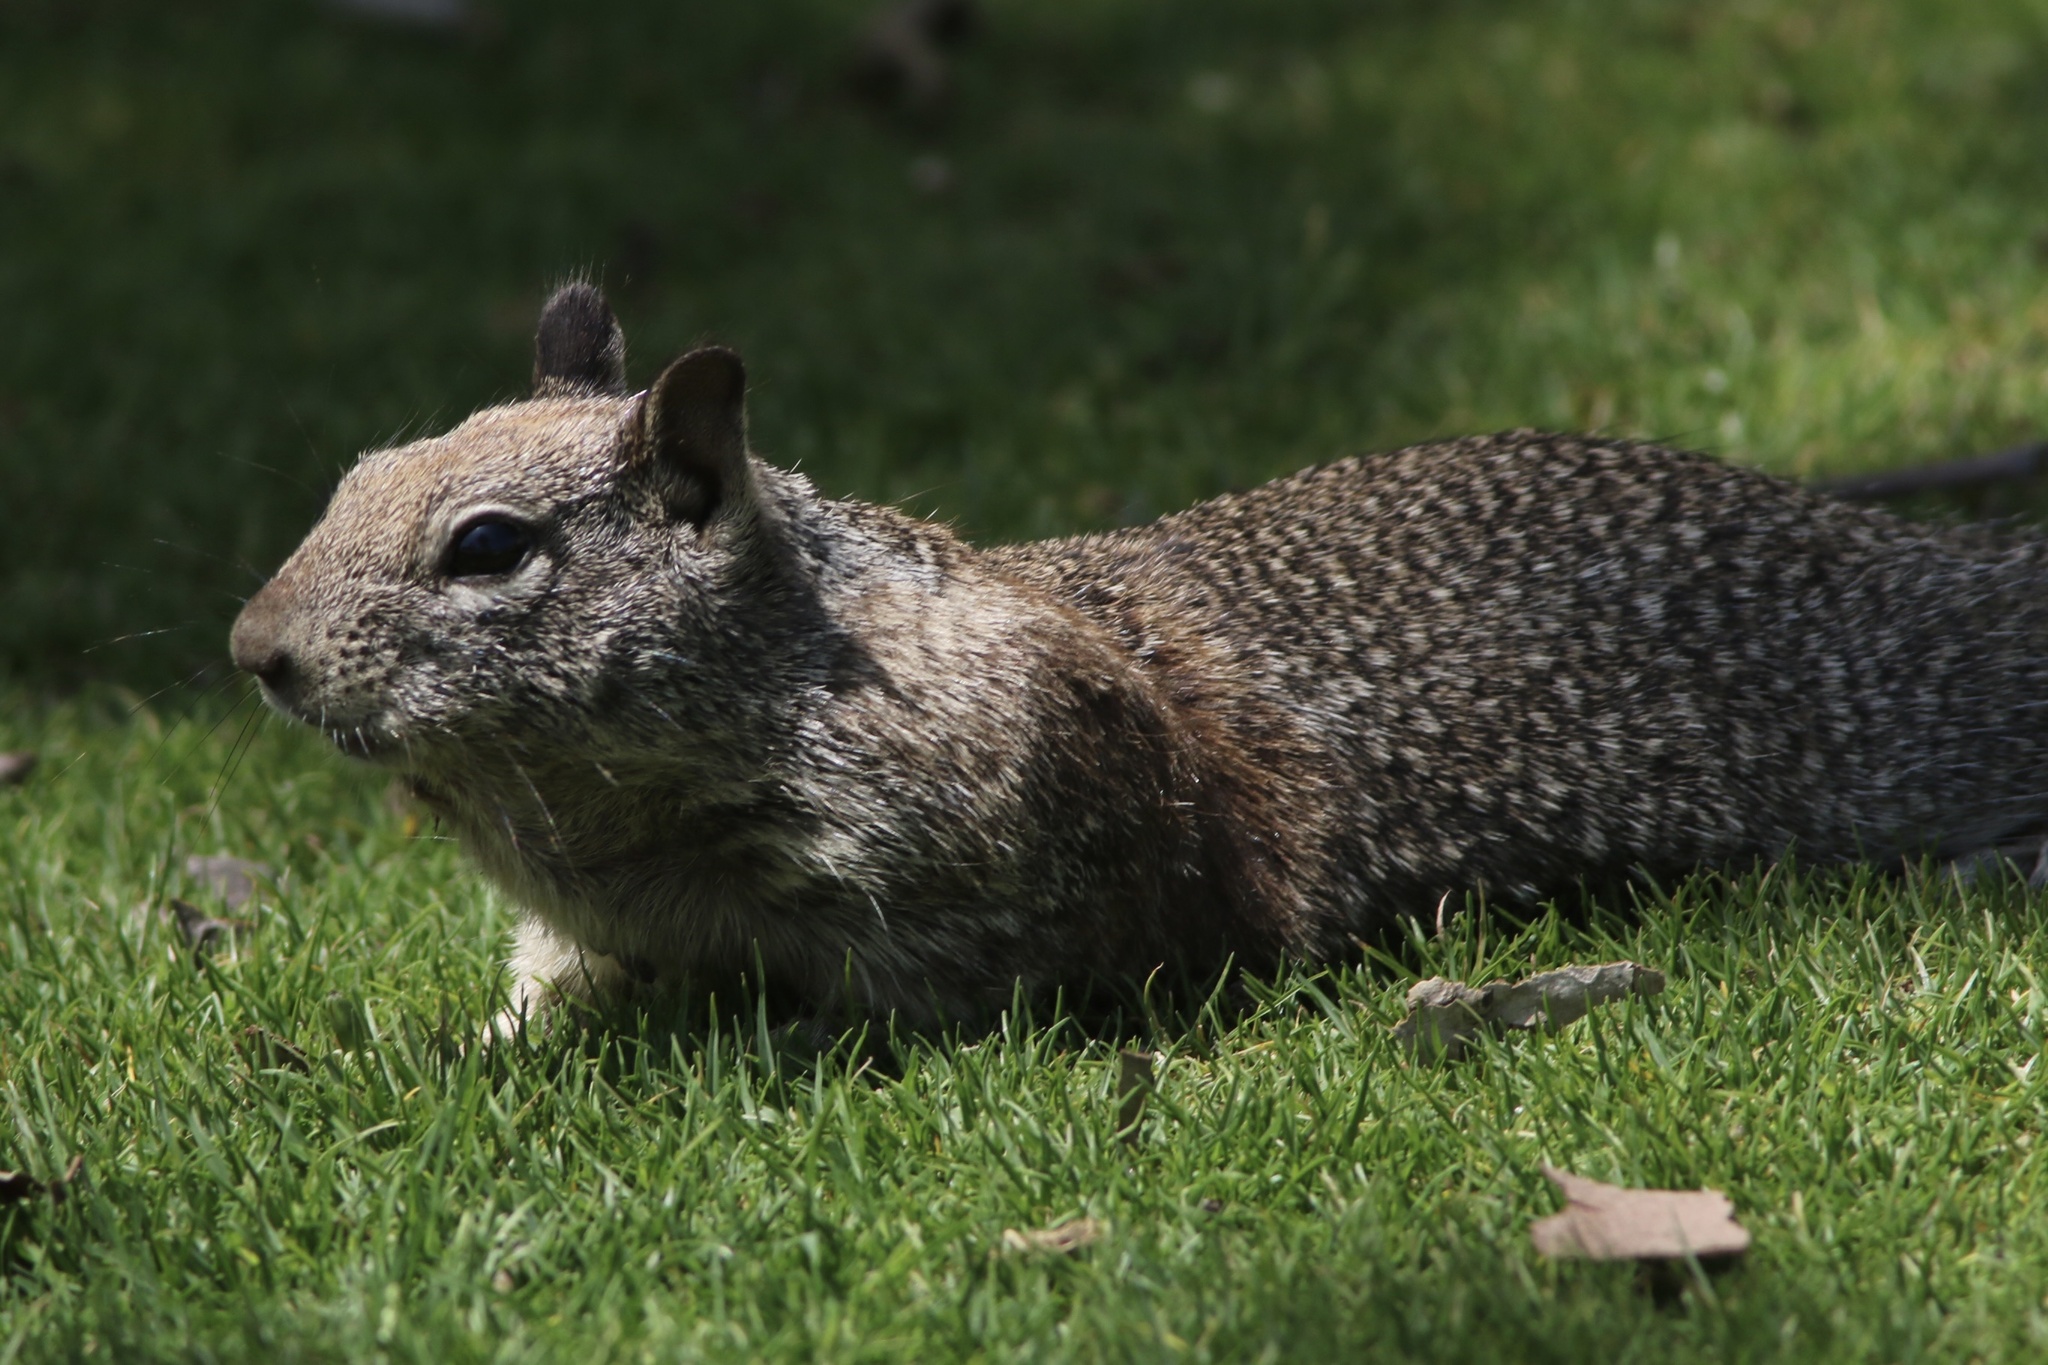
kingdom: Animalia
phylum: Chordata
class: Mammalia
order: Rodentia
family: Sciuridae
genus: Otospermophilus
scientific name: Otospermophilus beecheyi
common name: California ground squirrel
